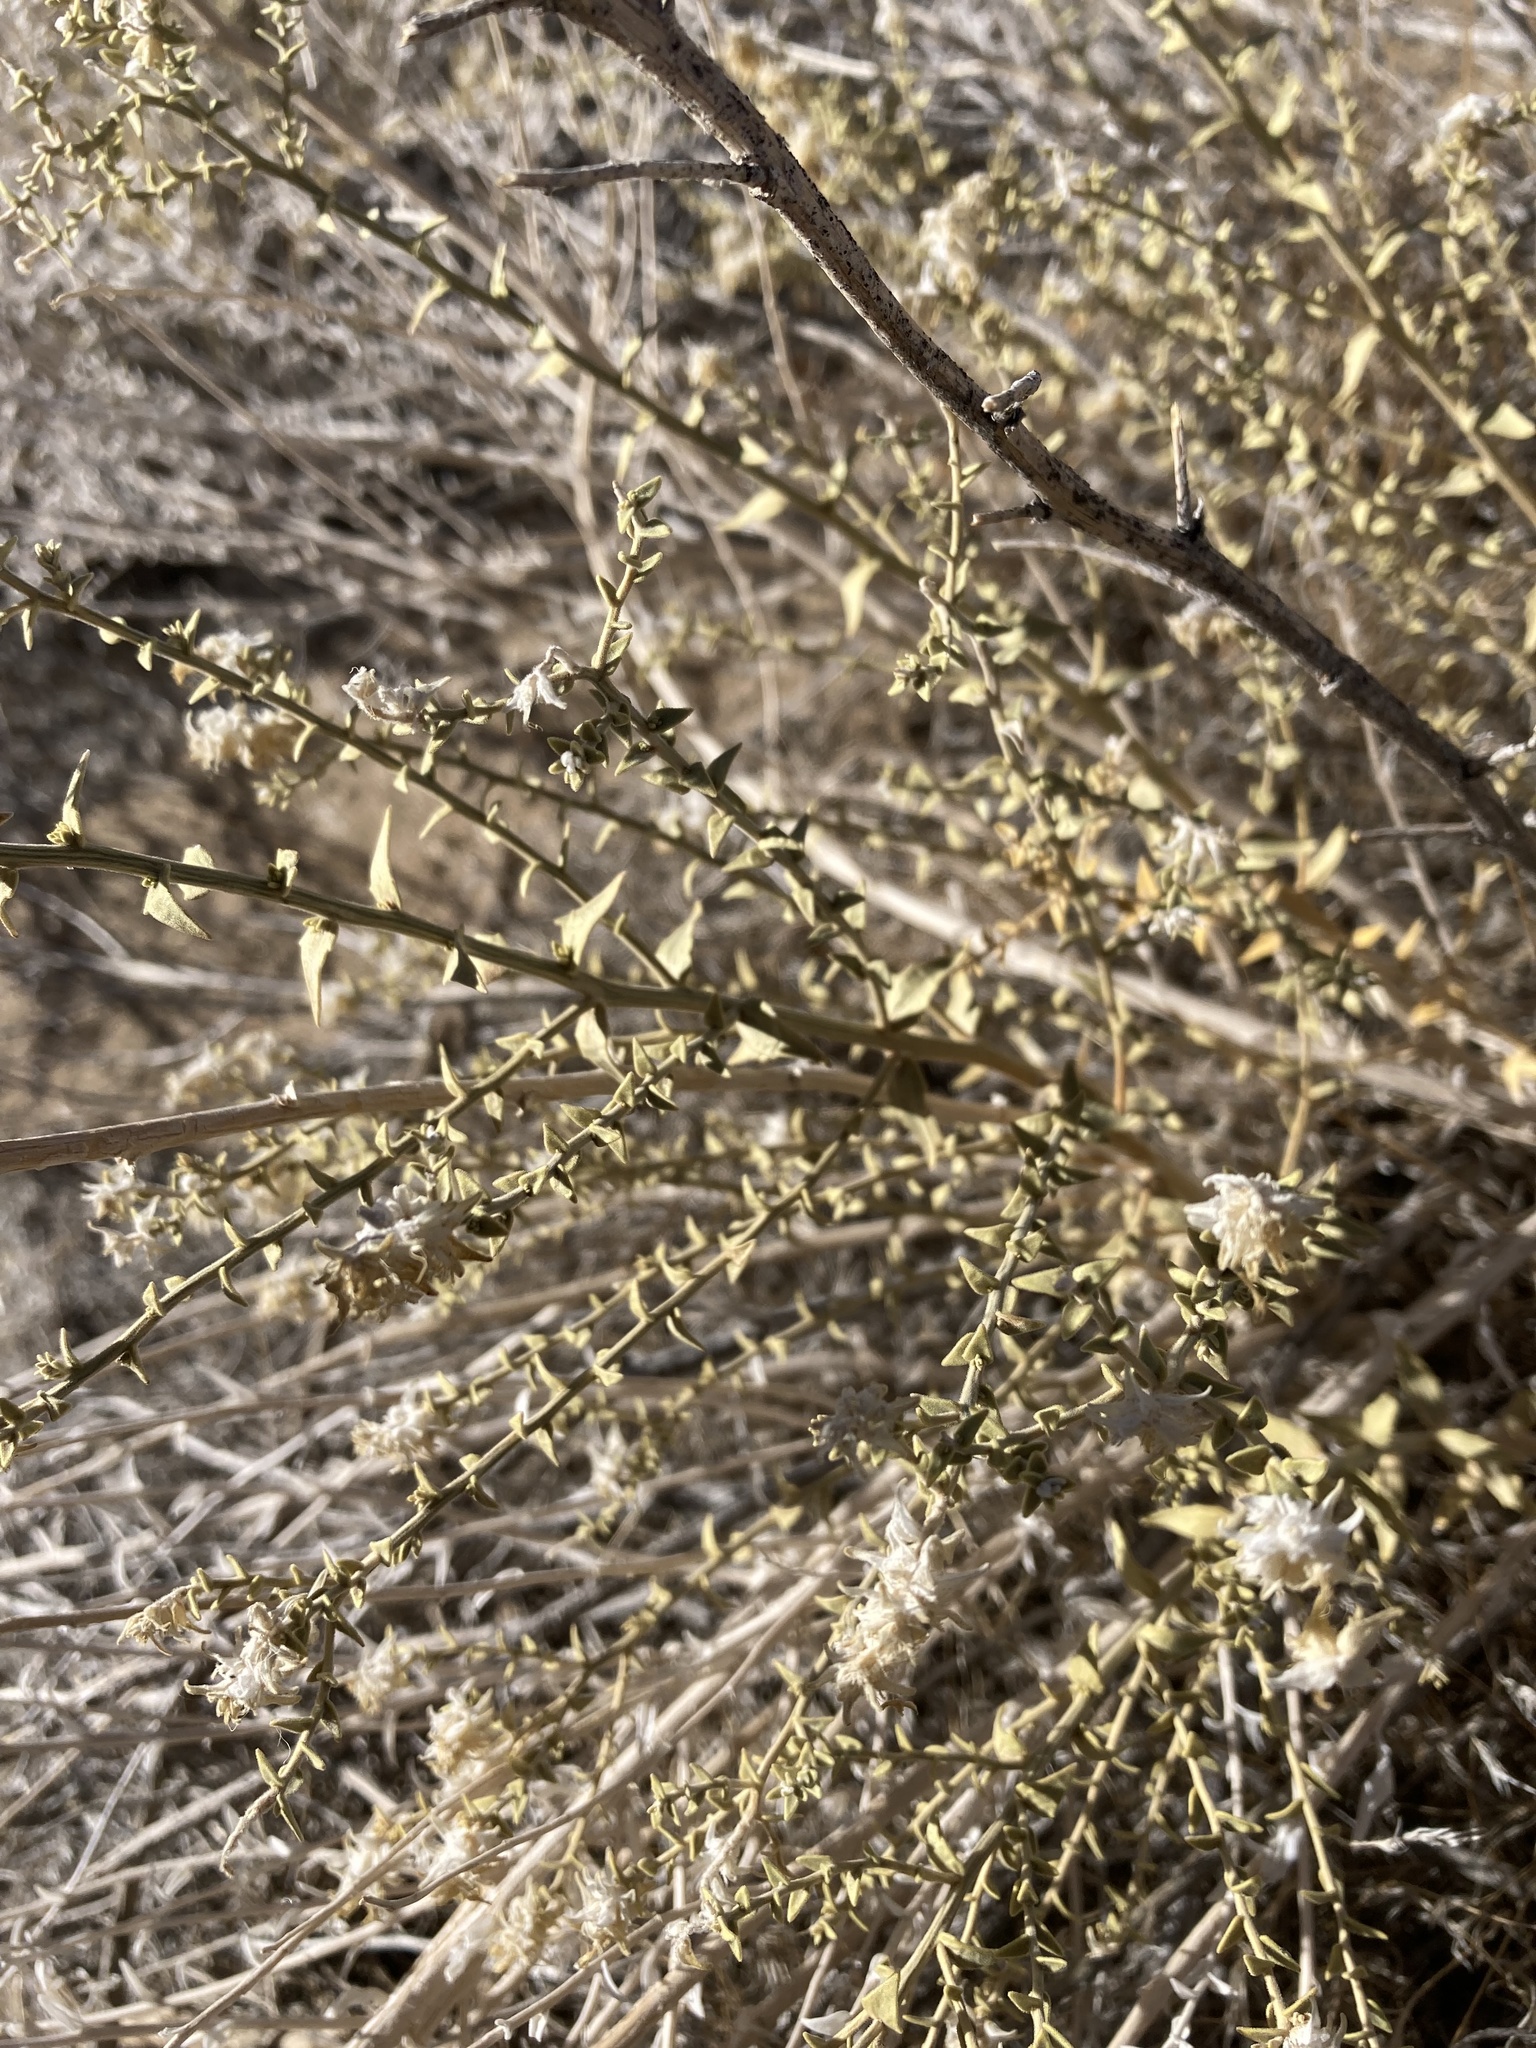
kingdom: Plantae
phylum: Tracheophyta
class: Magnoliopsida
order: Cornales
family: Loasaceae
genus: Petalonyx
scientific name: Petalonyx thurberi
